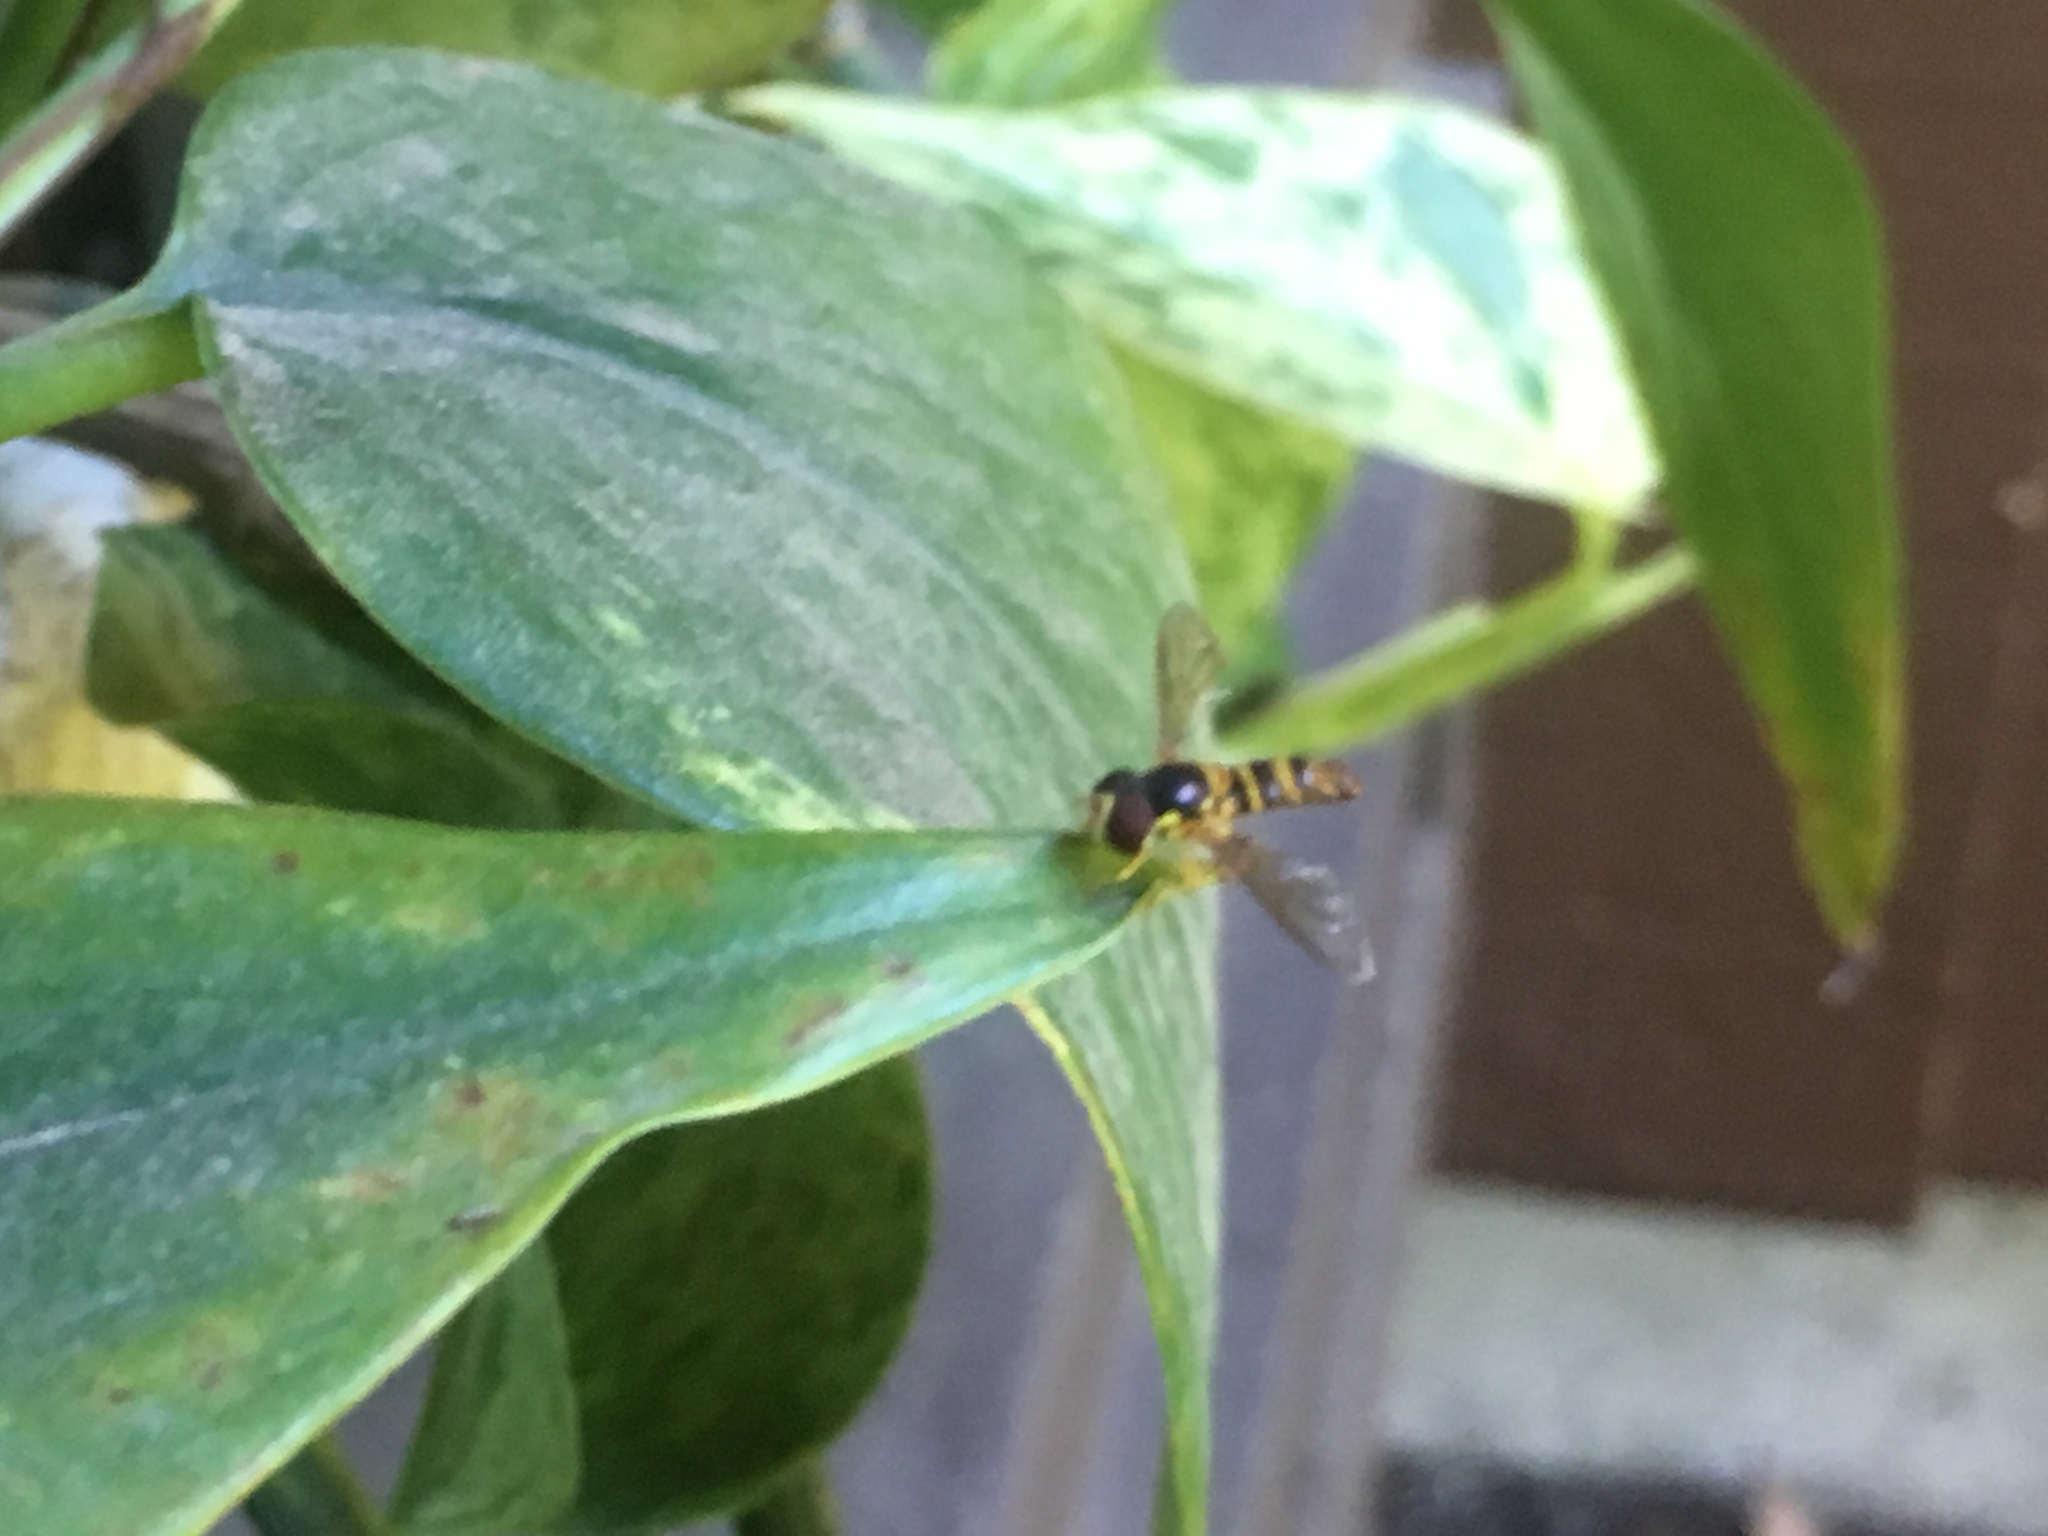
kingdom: Animalia
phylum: Arthropoda
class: Insecta
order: Diptera
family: Syrphidae
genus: Allograpta
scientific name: Allograpta
